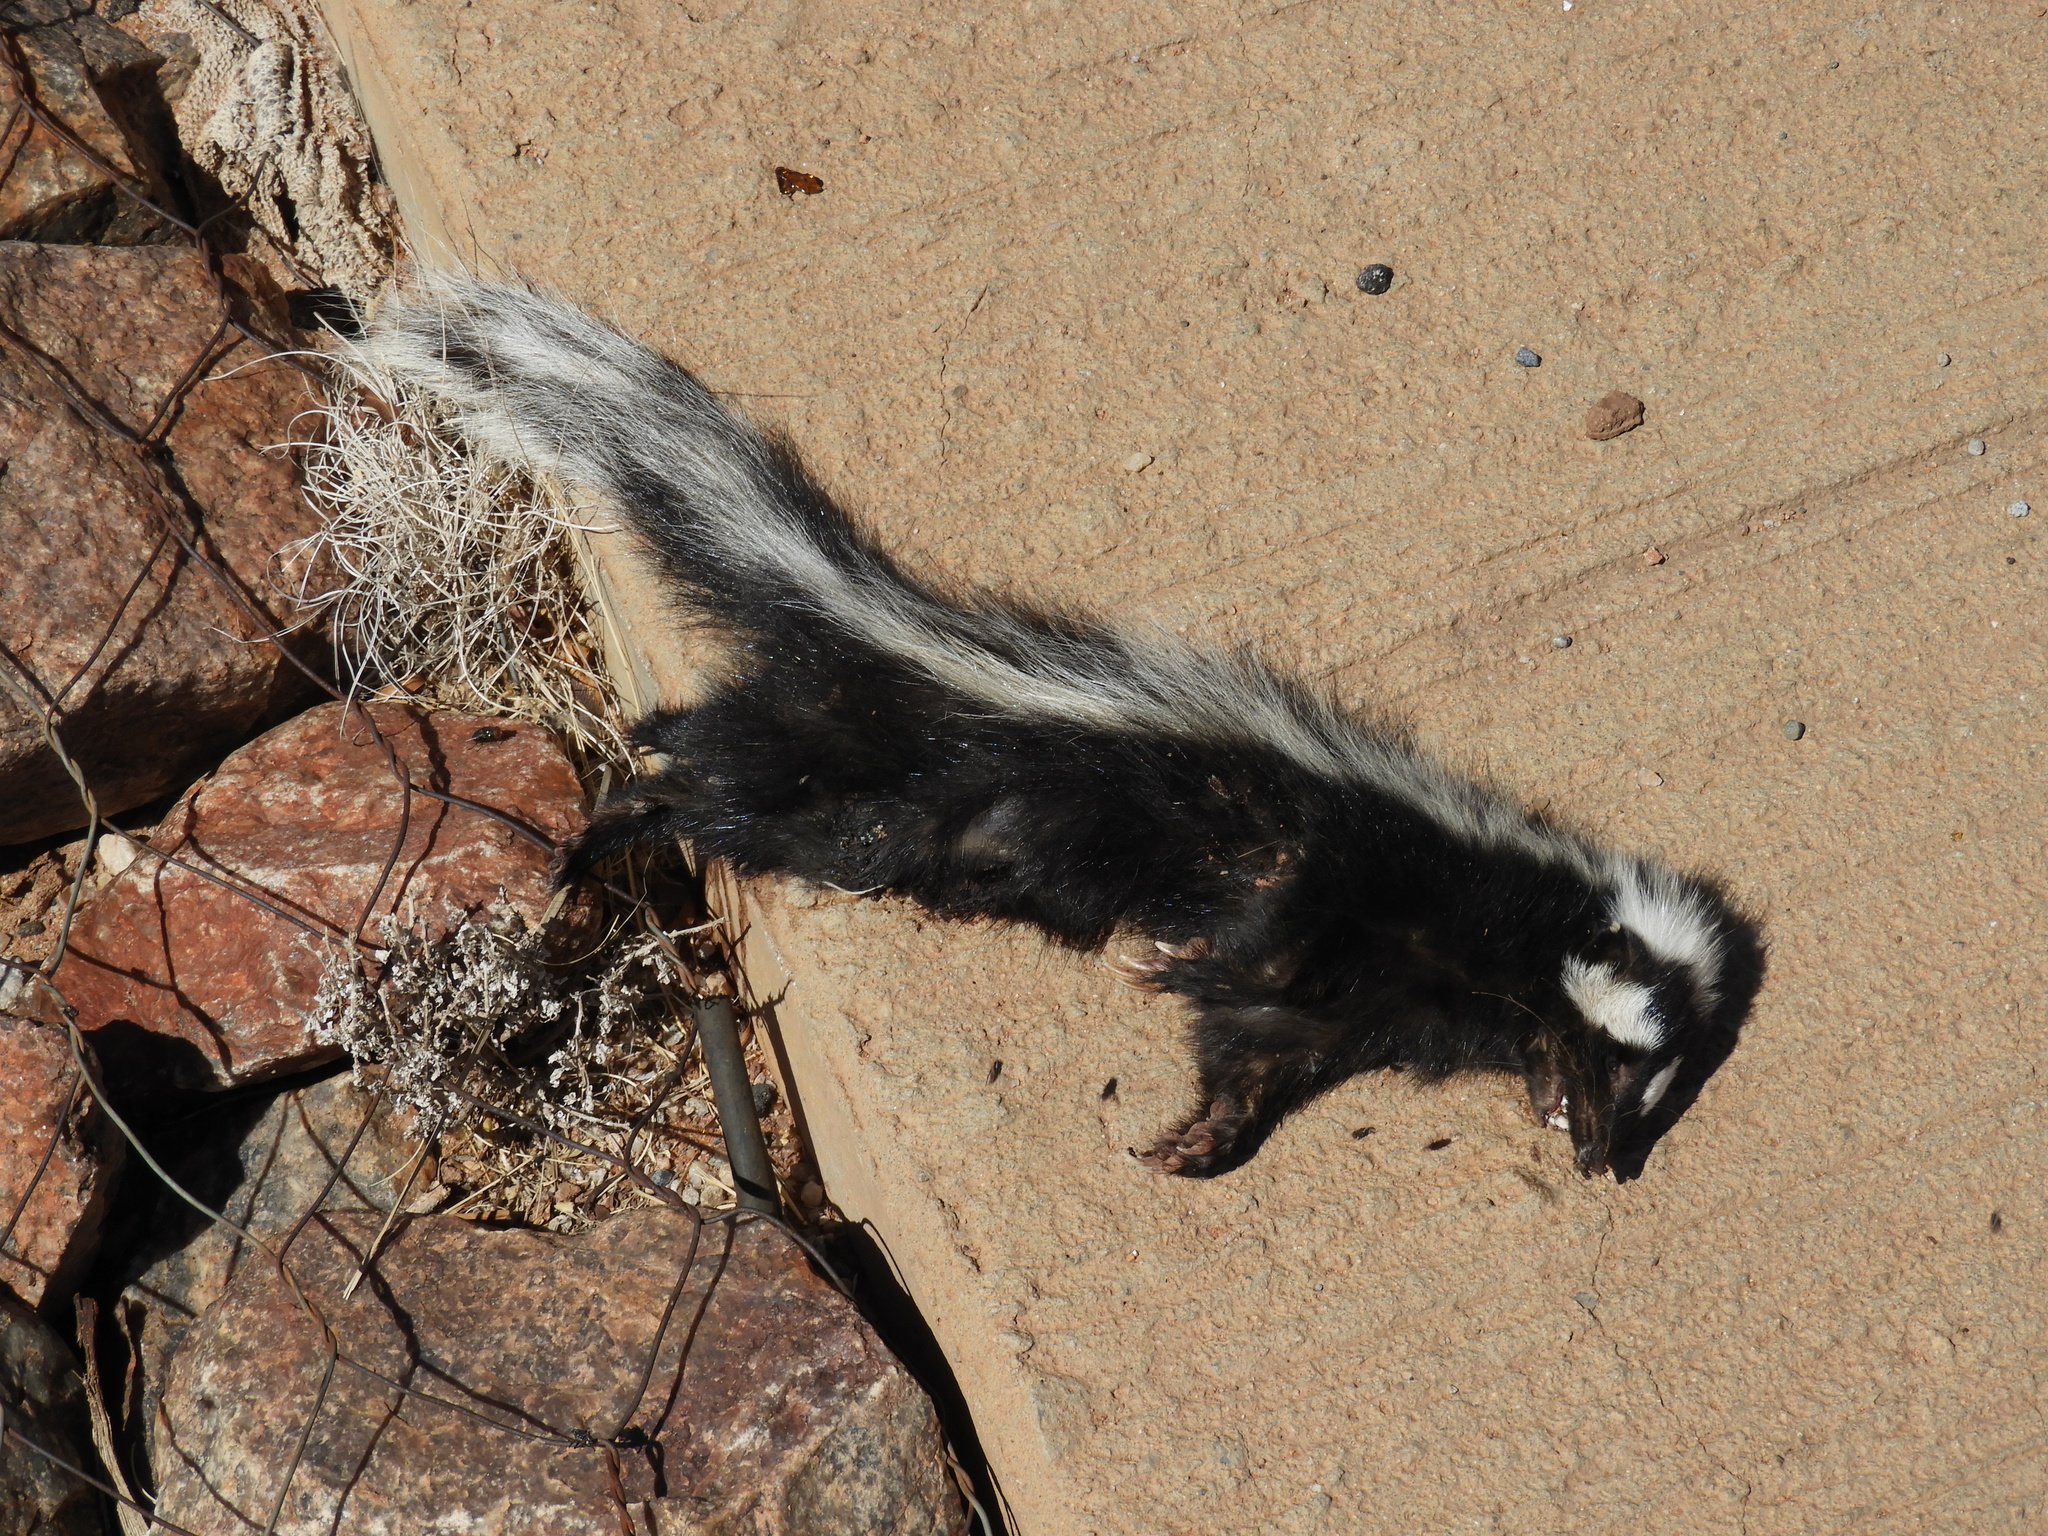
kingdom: Animalia
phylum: Chordata
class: Mammalia
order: Carnivora
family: Mustelidae
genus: Ictonyx
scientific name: Ictonyx striatus
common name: Striped polecat
